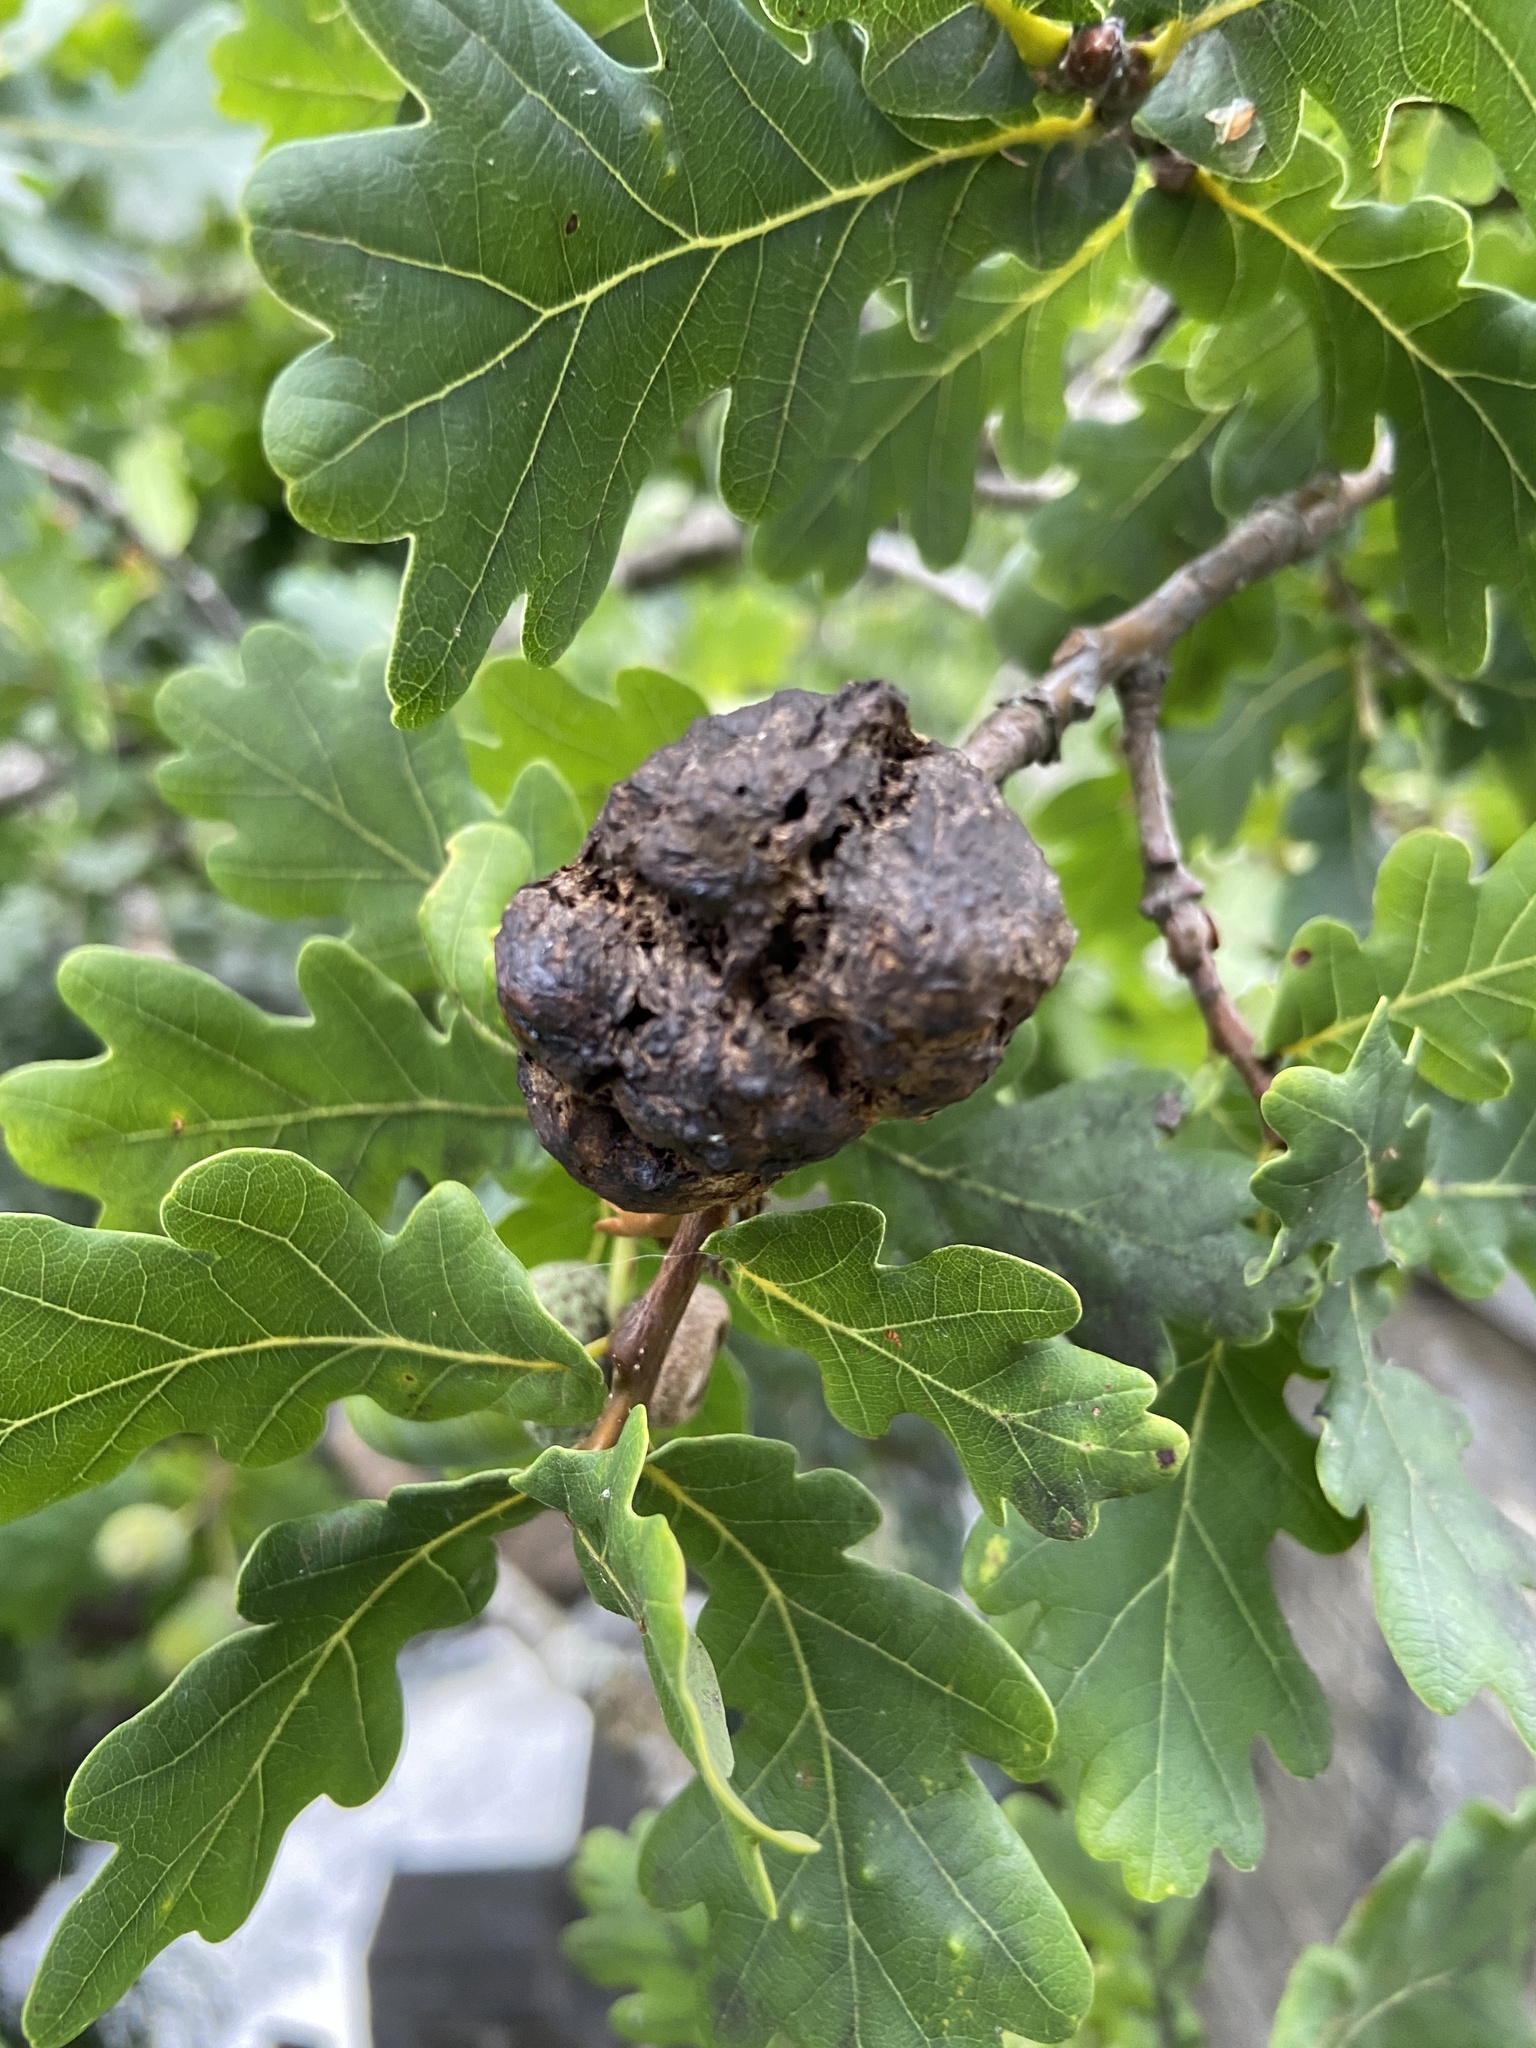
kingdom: Animalia
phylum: Arthropoda
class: Insecta
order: Hymenoptera
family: Cynipidae
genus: Biorhiza
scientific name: Biorhiza pallida
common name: Oak apple
